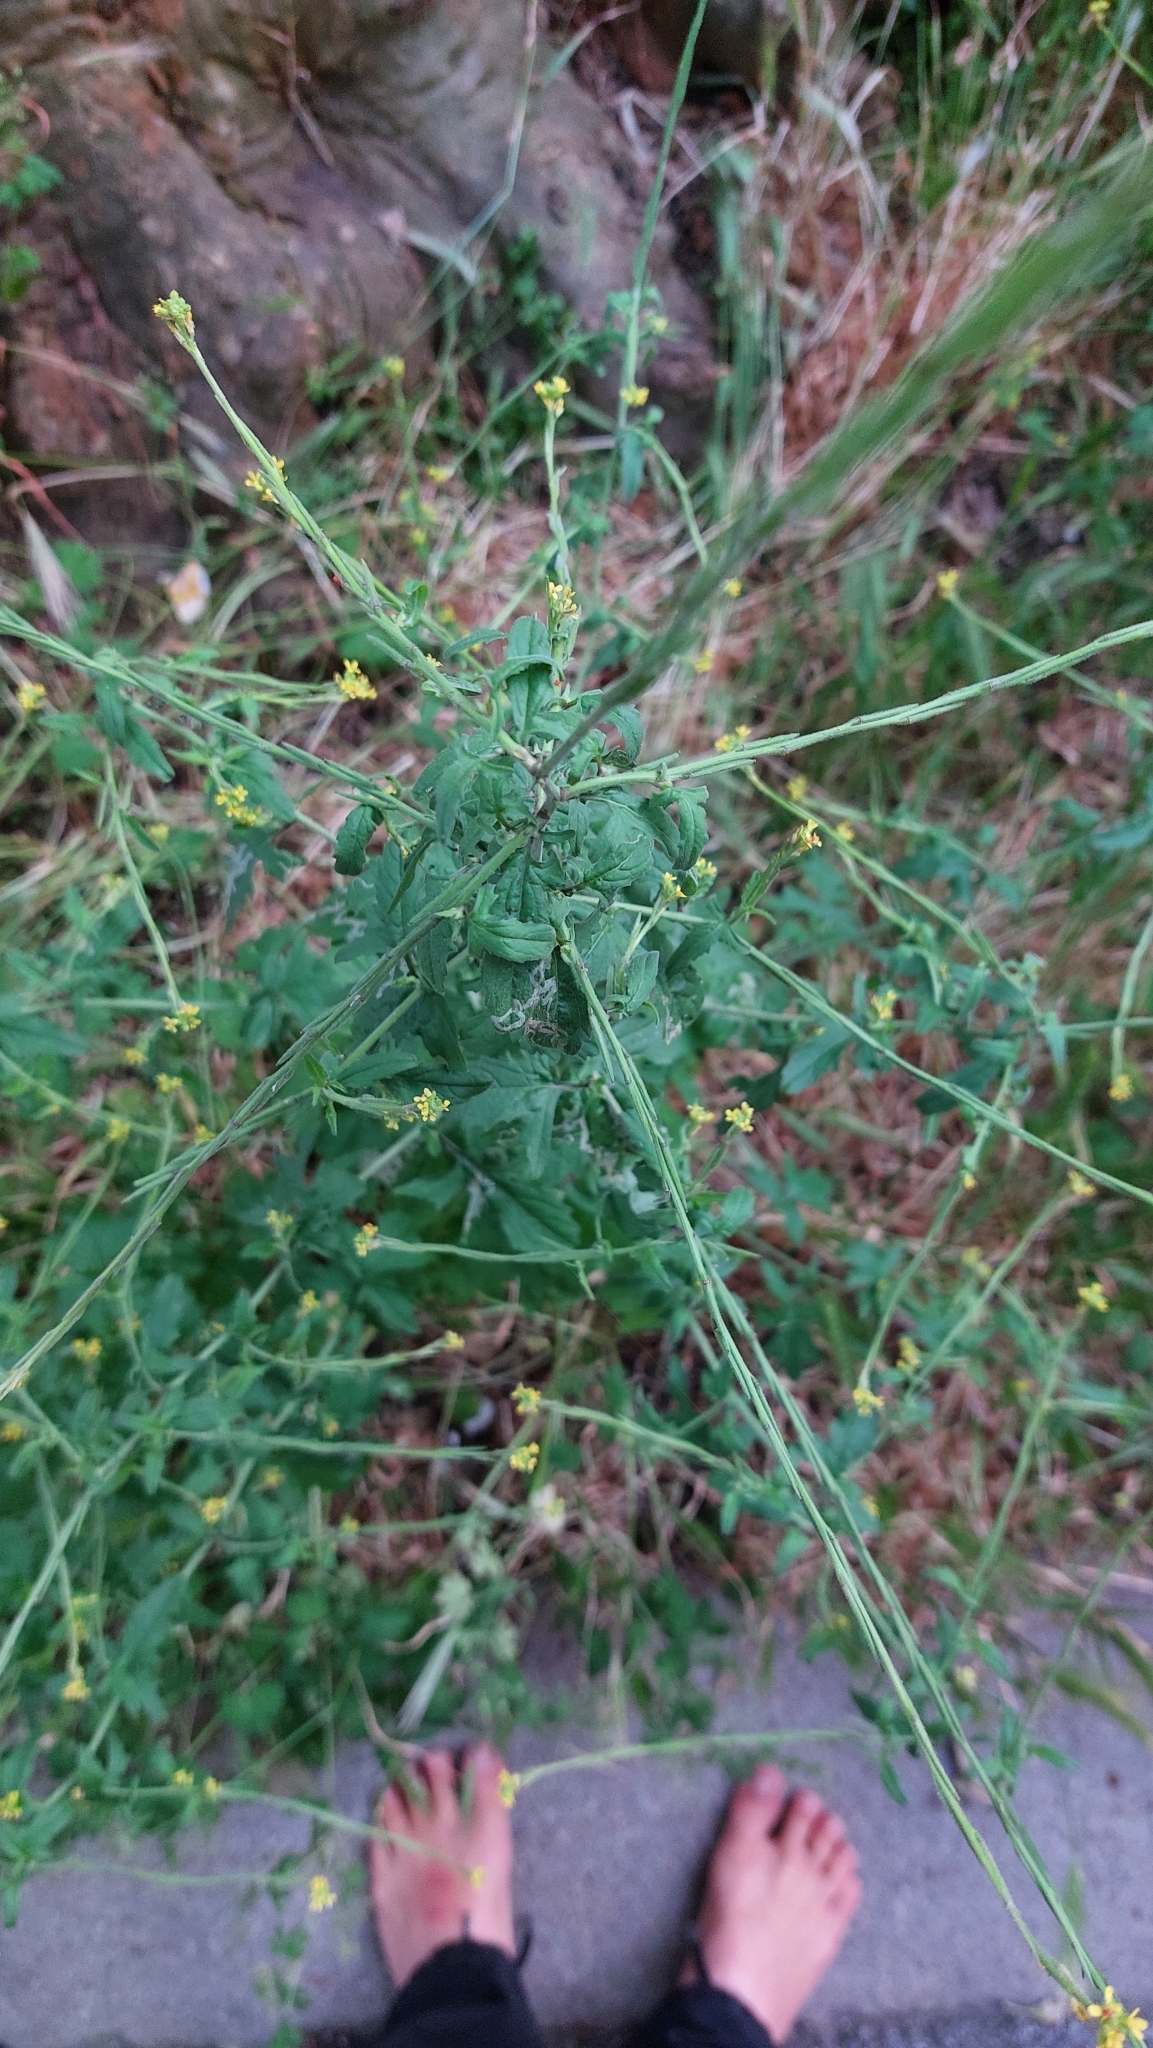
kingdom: Plantae
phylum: Tracheophyta
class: Magnoliopsida
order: Brassicales
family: Brassicaceae
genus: Sisymbrium
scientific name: Sisymbrium officinale
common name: Hedge mustard
